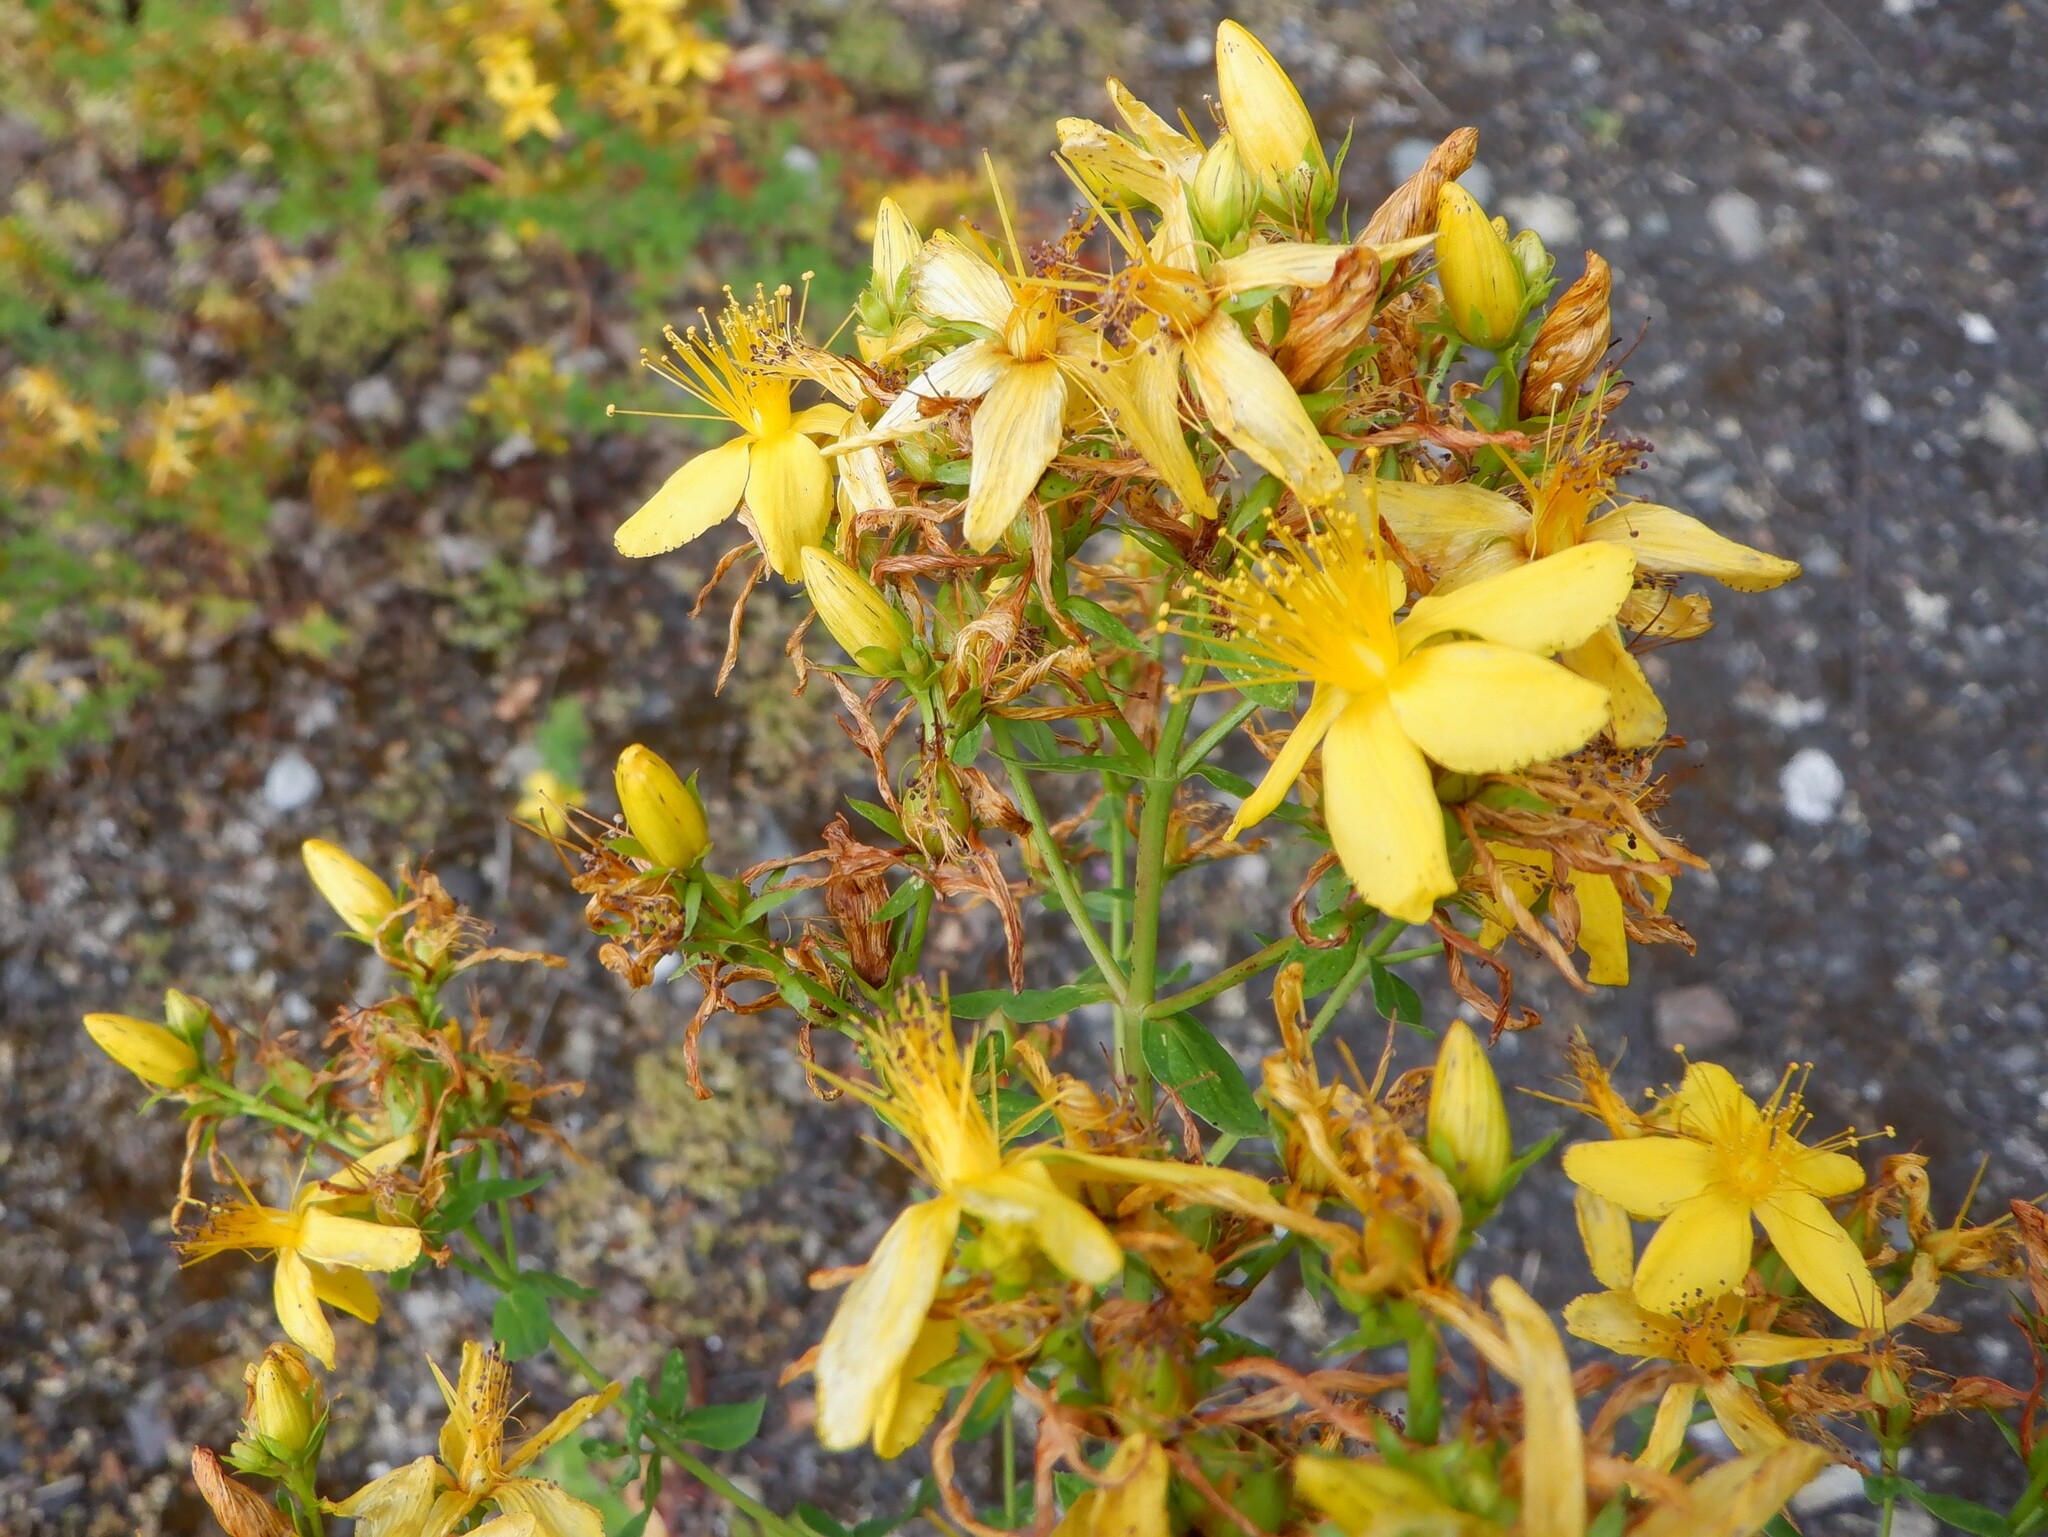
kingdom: Plantae
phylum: Tracheophyta
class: Magnoliopsida
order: Malpighiales
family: Hypericaceae
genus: Hypericum
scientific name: Hypericum perforatum
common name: Common st. johnswort
